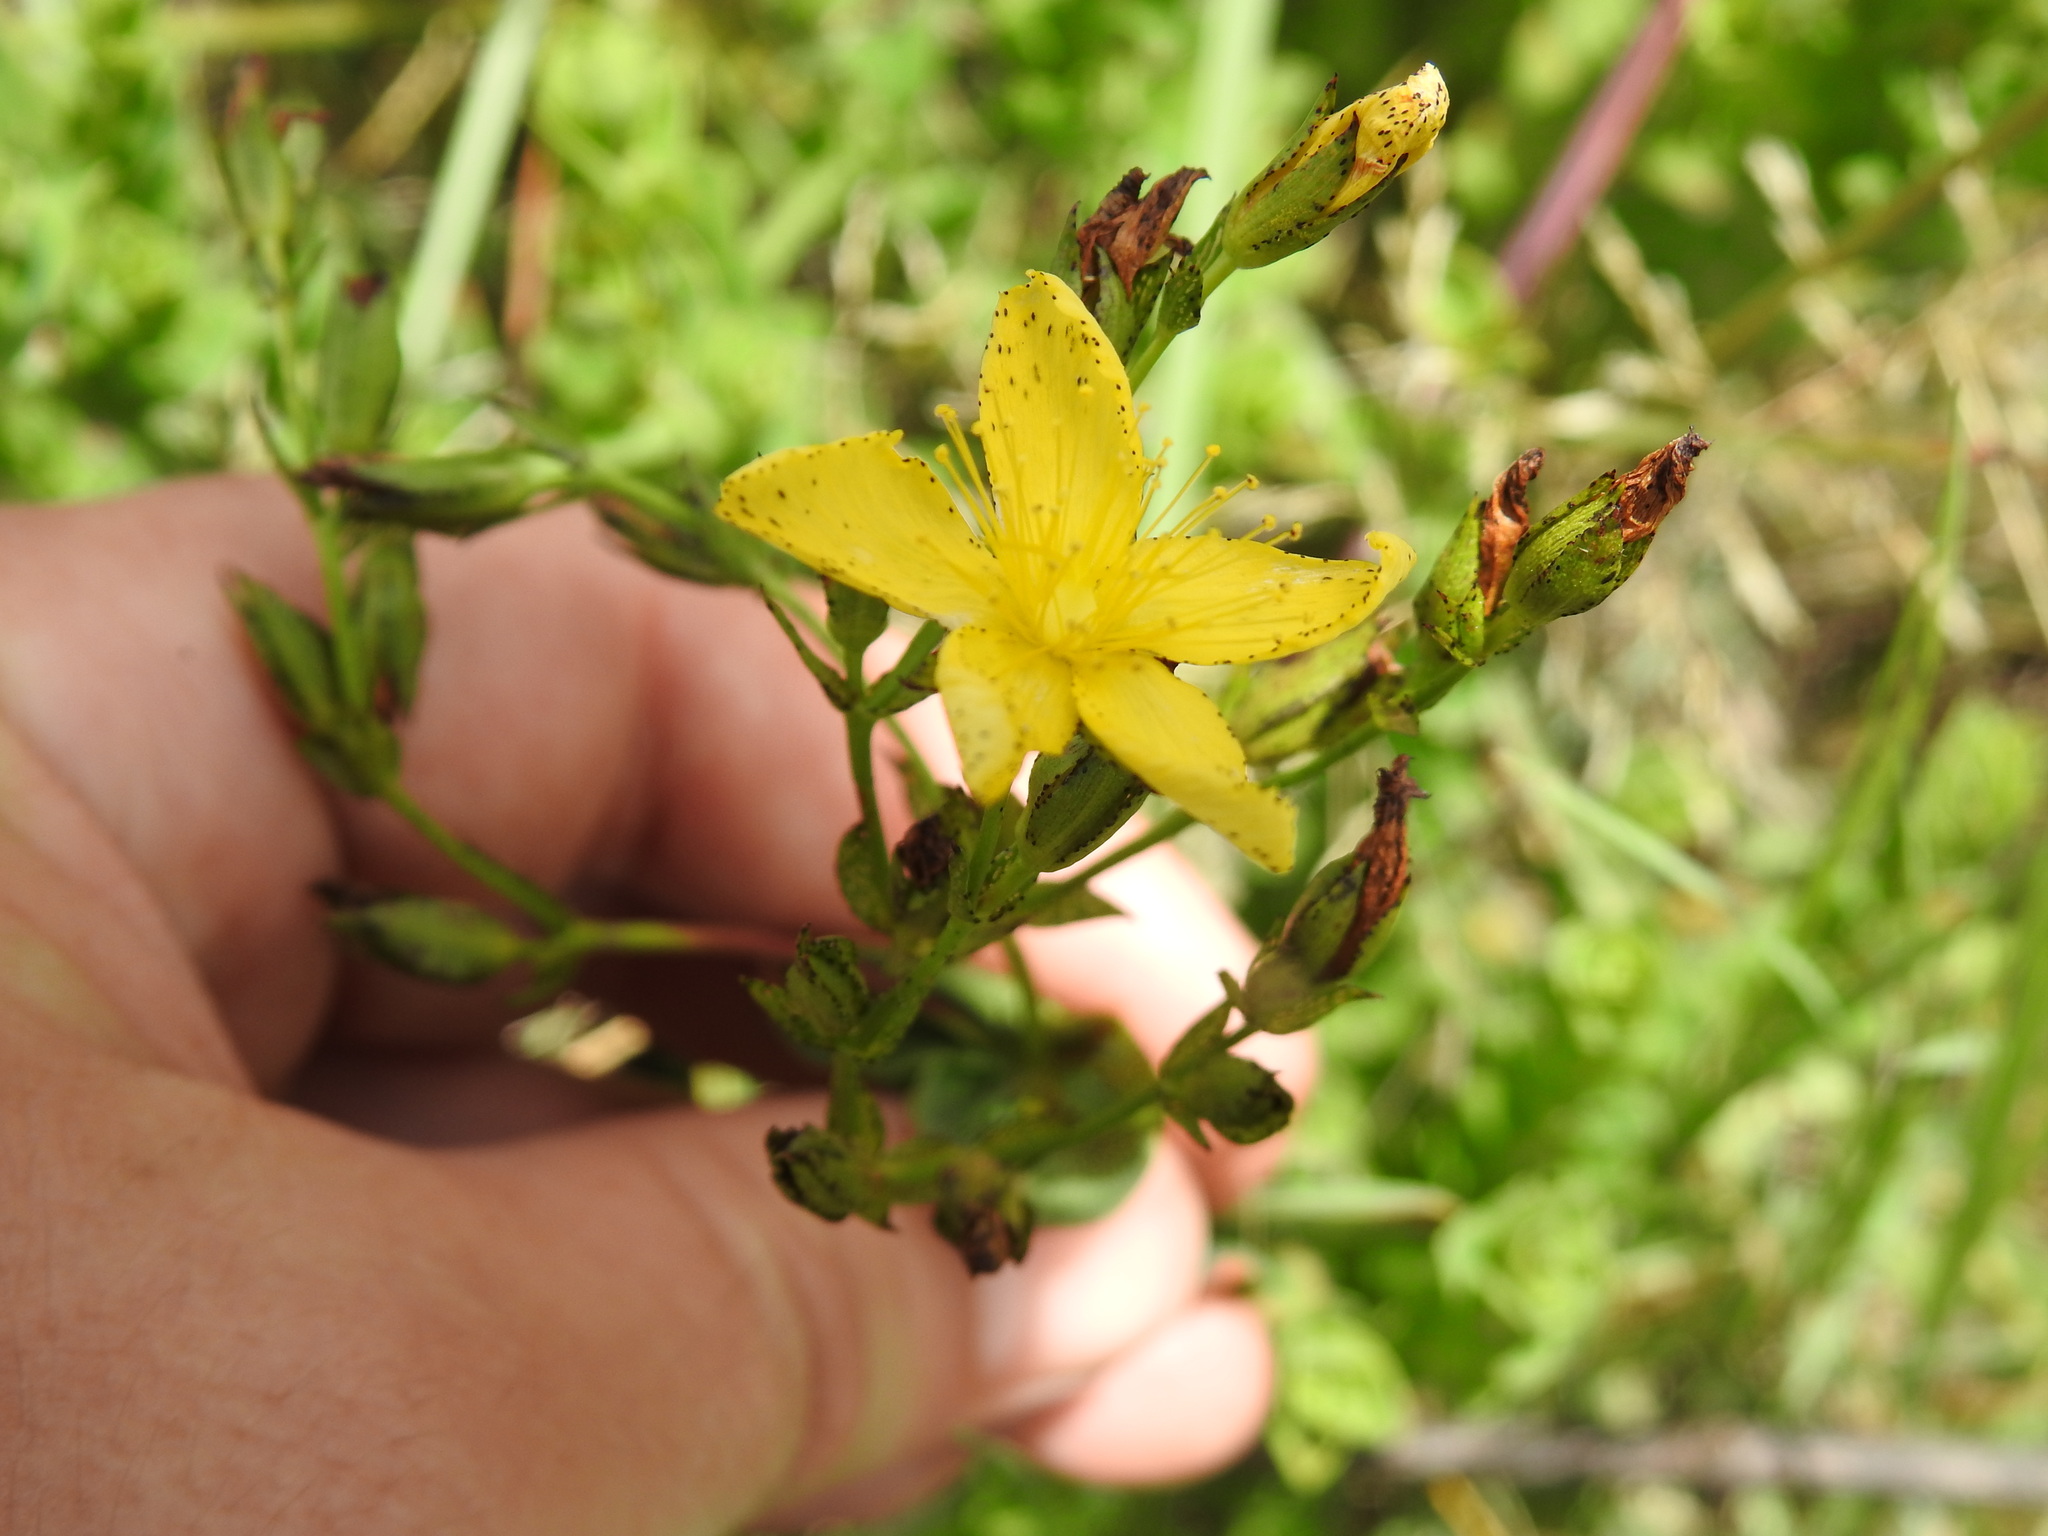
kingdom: Plantae
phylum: Tracheophyta
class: Magnoliopsida
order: Malpighiales
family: Hypericaceae
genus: Hypericum
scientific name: Hypericum aethiopicum
